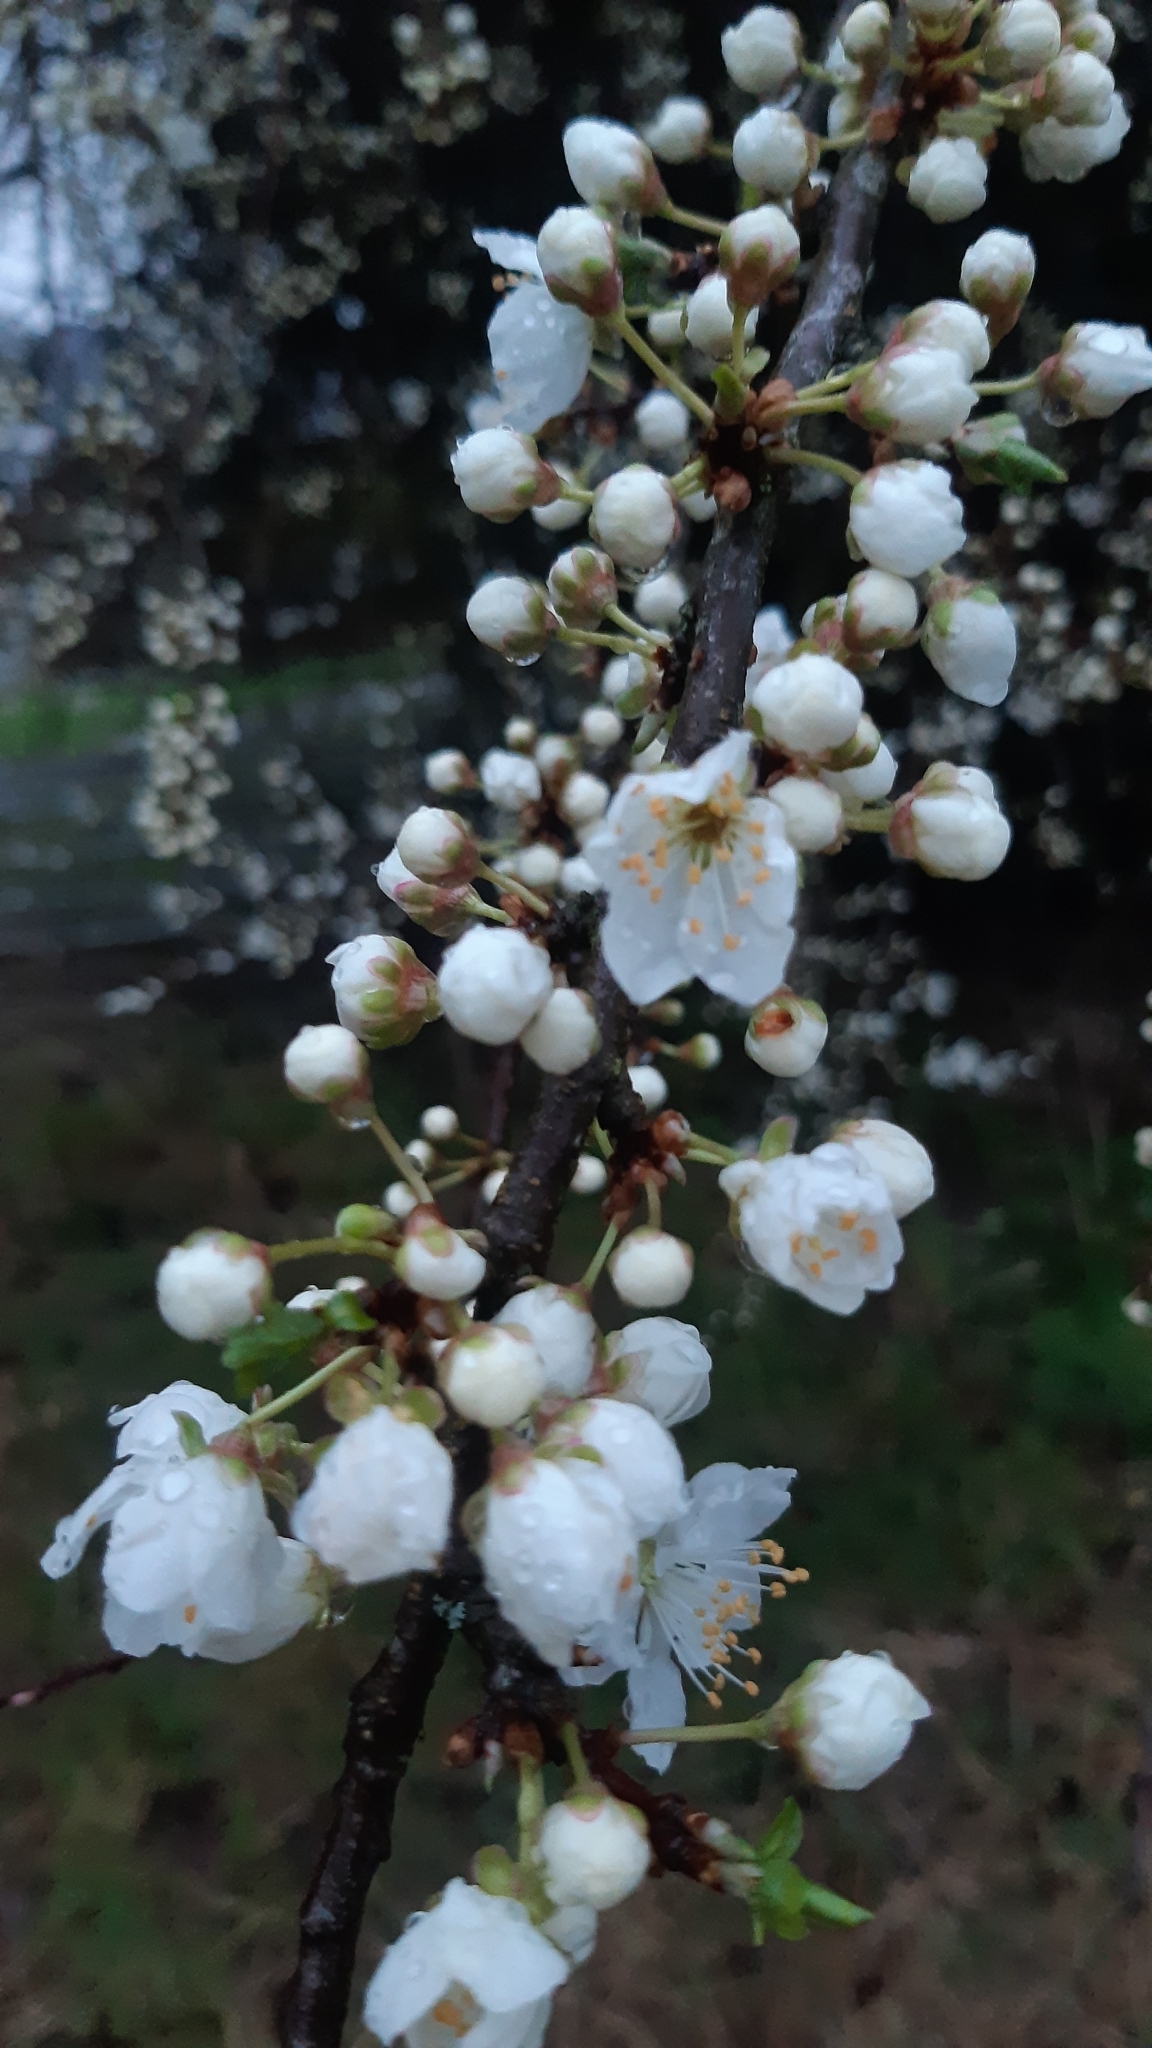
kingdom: Plantae
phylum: Tracheophyta
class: Magnoliopsida
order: Rosales
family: Rosaceae
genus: Prunus
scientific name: Prunus cerasifera
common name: Cherry plum
